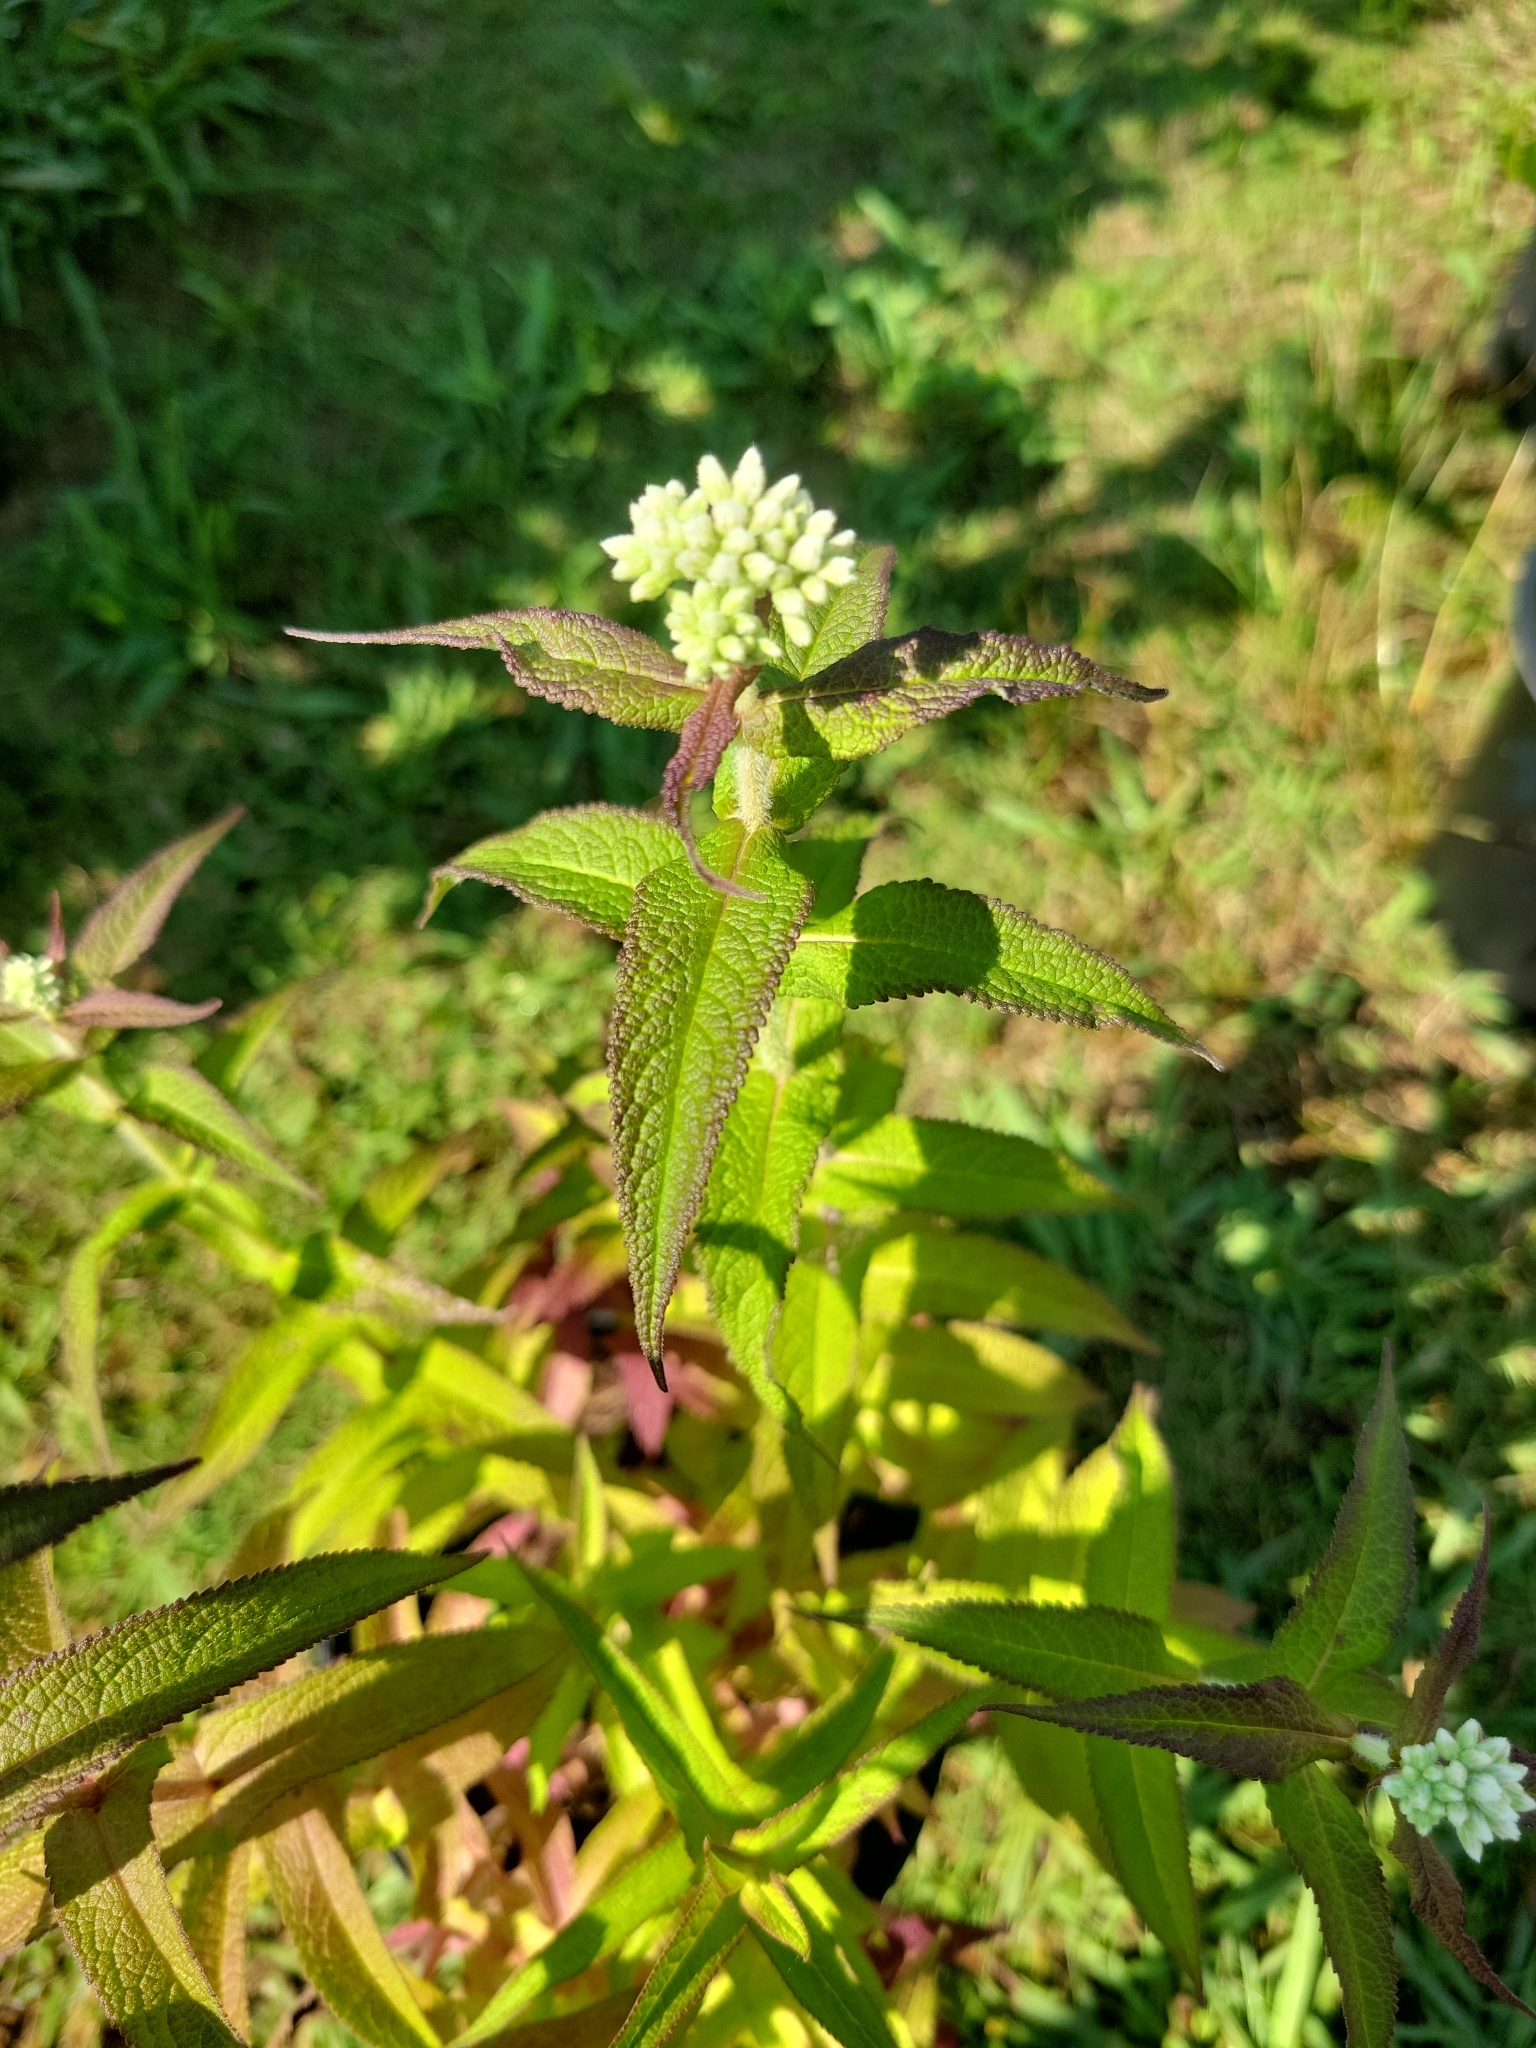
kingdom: Plantae
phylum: Tracheophyta
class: Magnoliopsida
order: Asterales
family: Asteraceae
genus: Eupatorium
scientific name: Eupatorium perfoliatum
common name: Boneset
